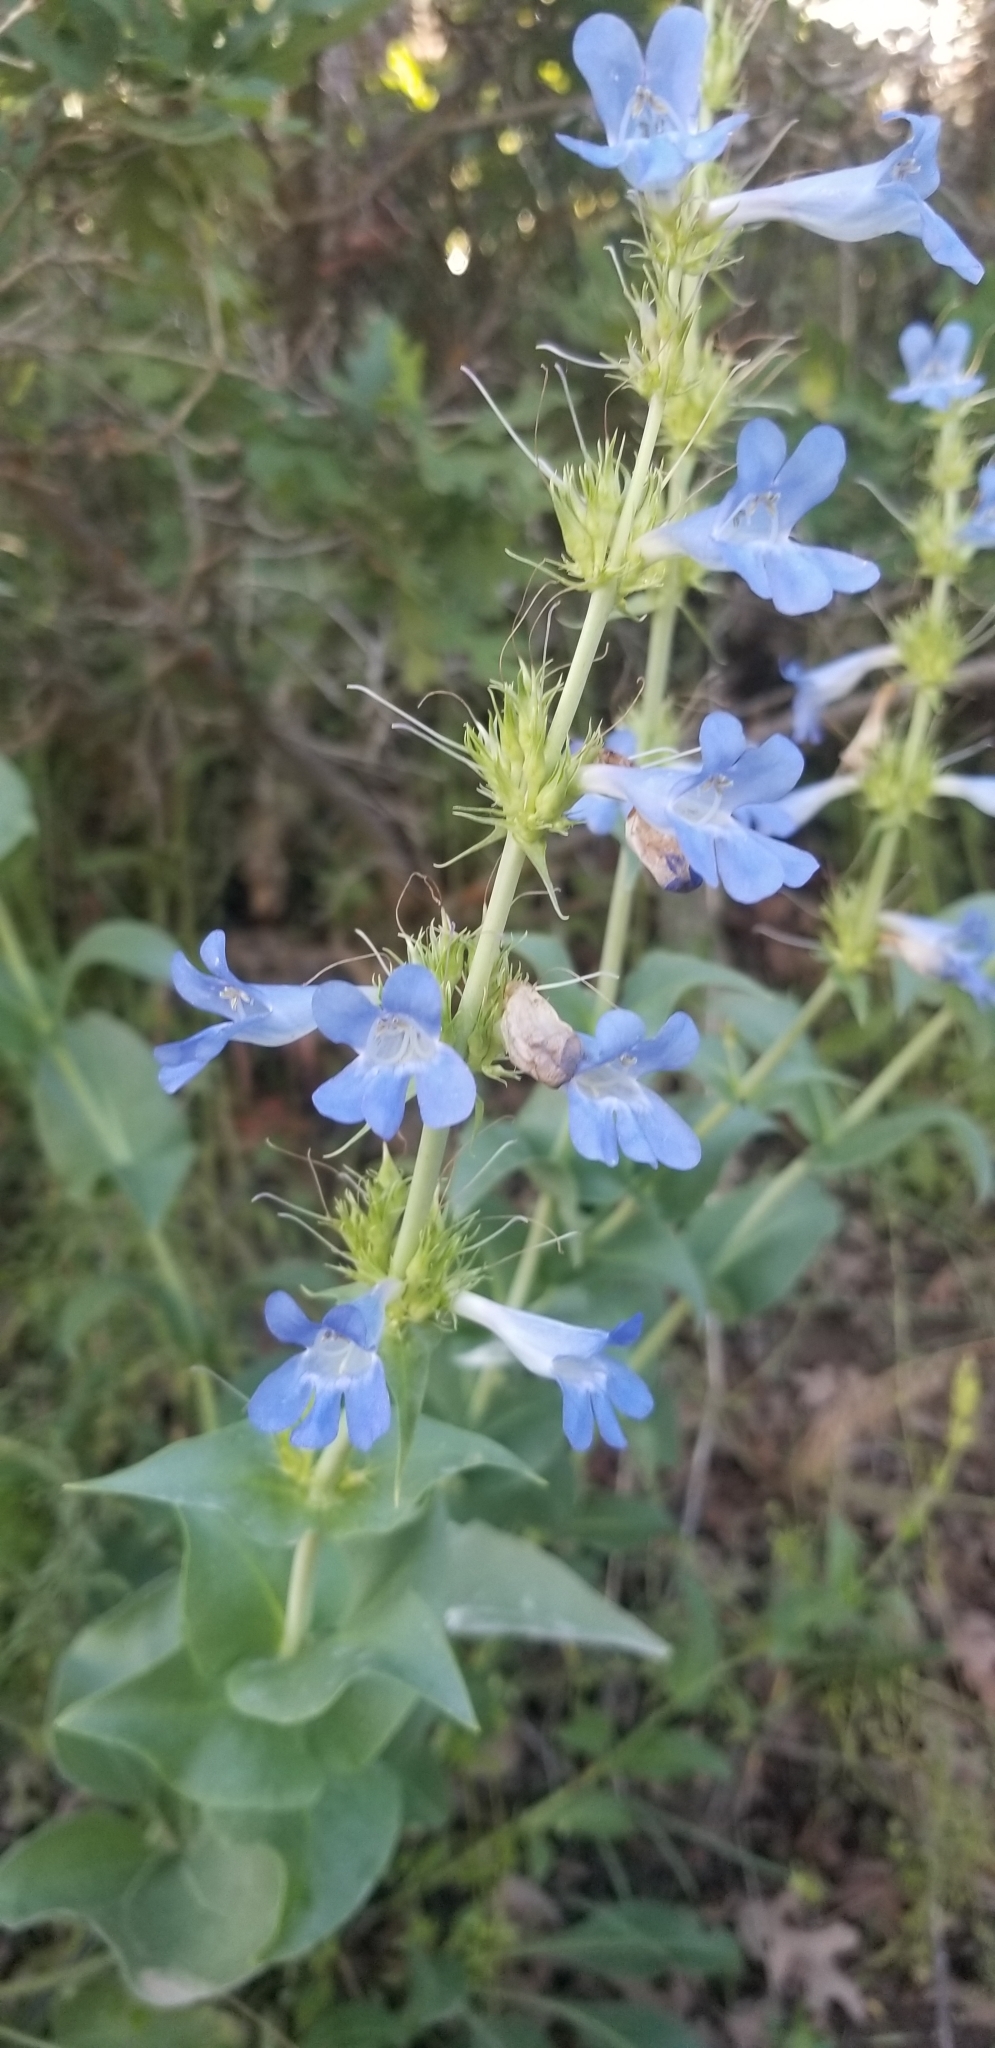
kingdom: Plantae
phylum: Tracheophyta
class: Magnoliopsida
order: Lamiales
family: Plantaginaceae
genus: Penstemon
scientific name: Penstemon cyananthus
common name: Wasatch penstemon
